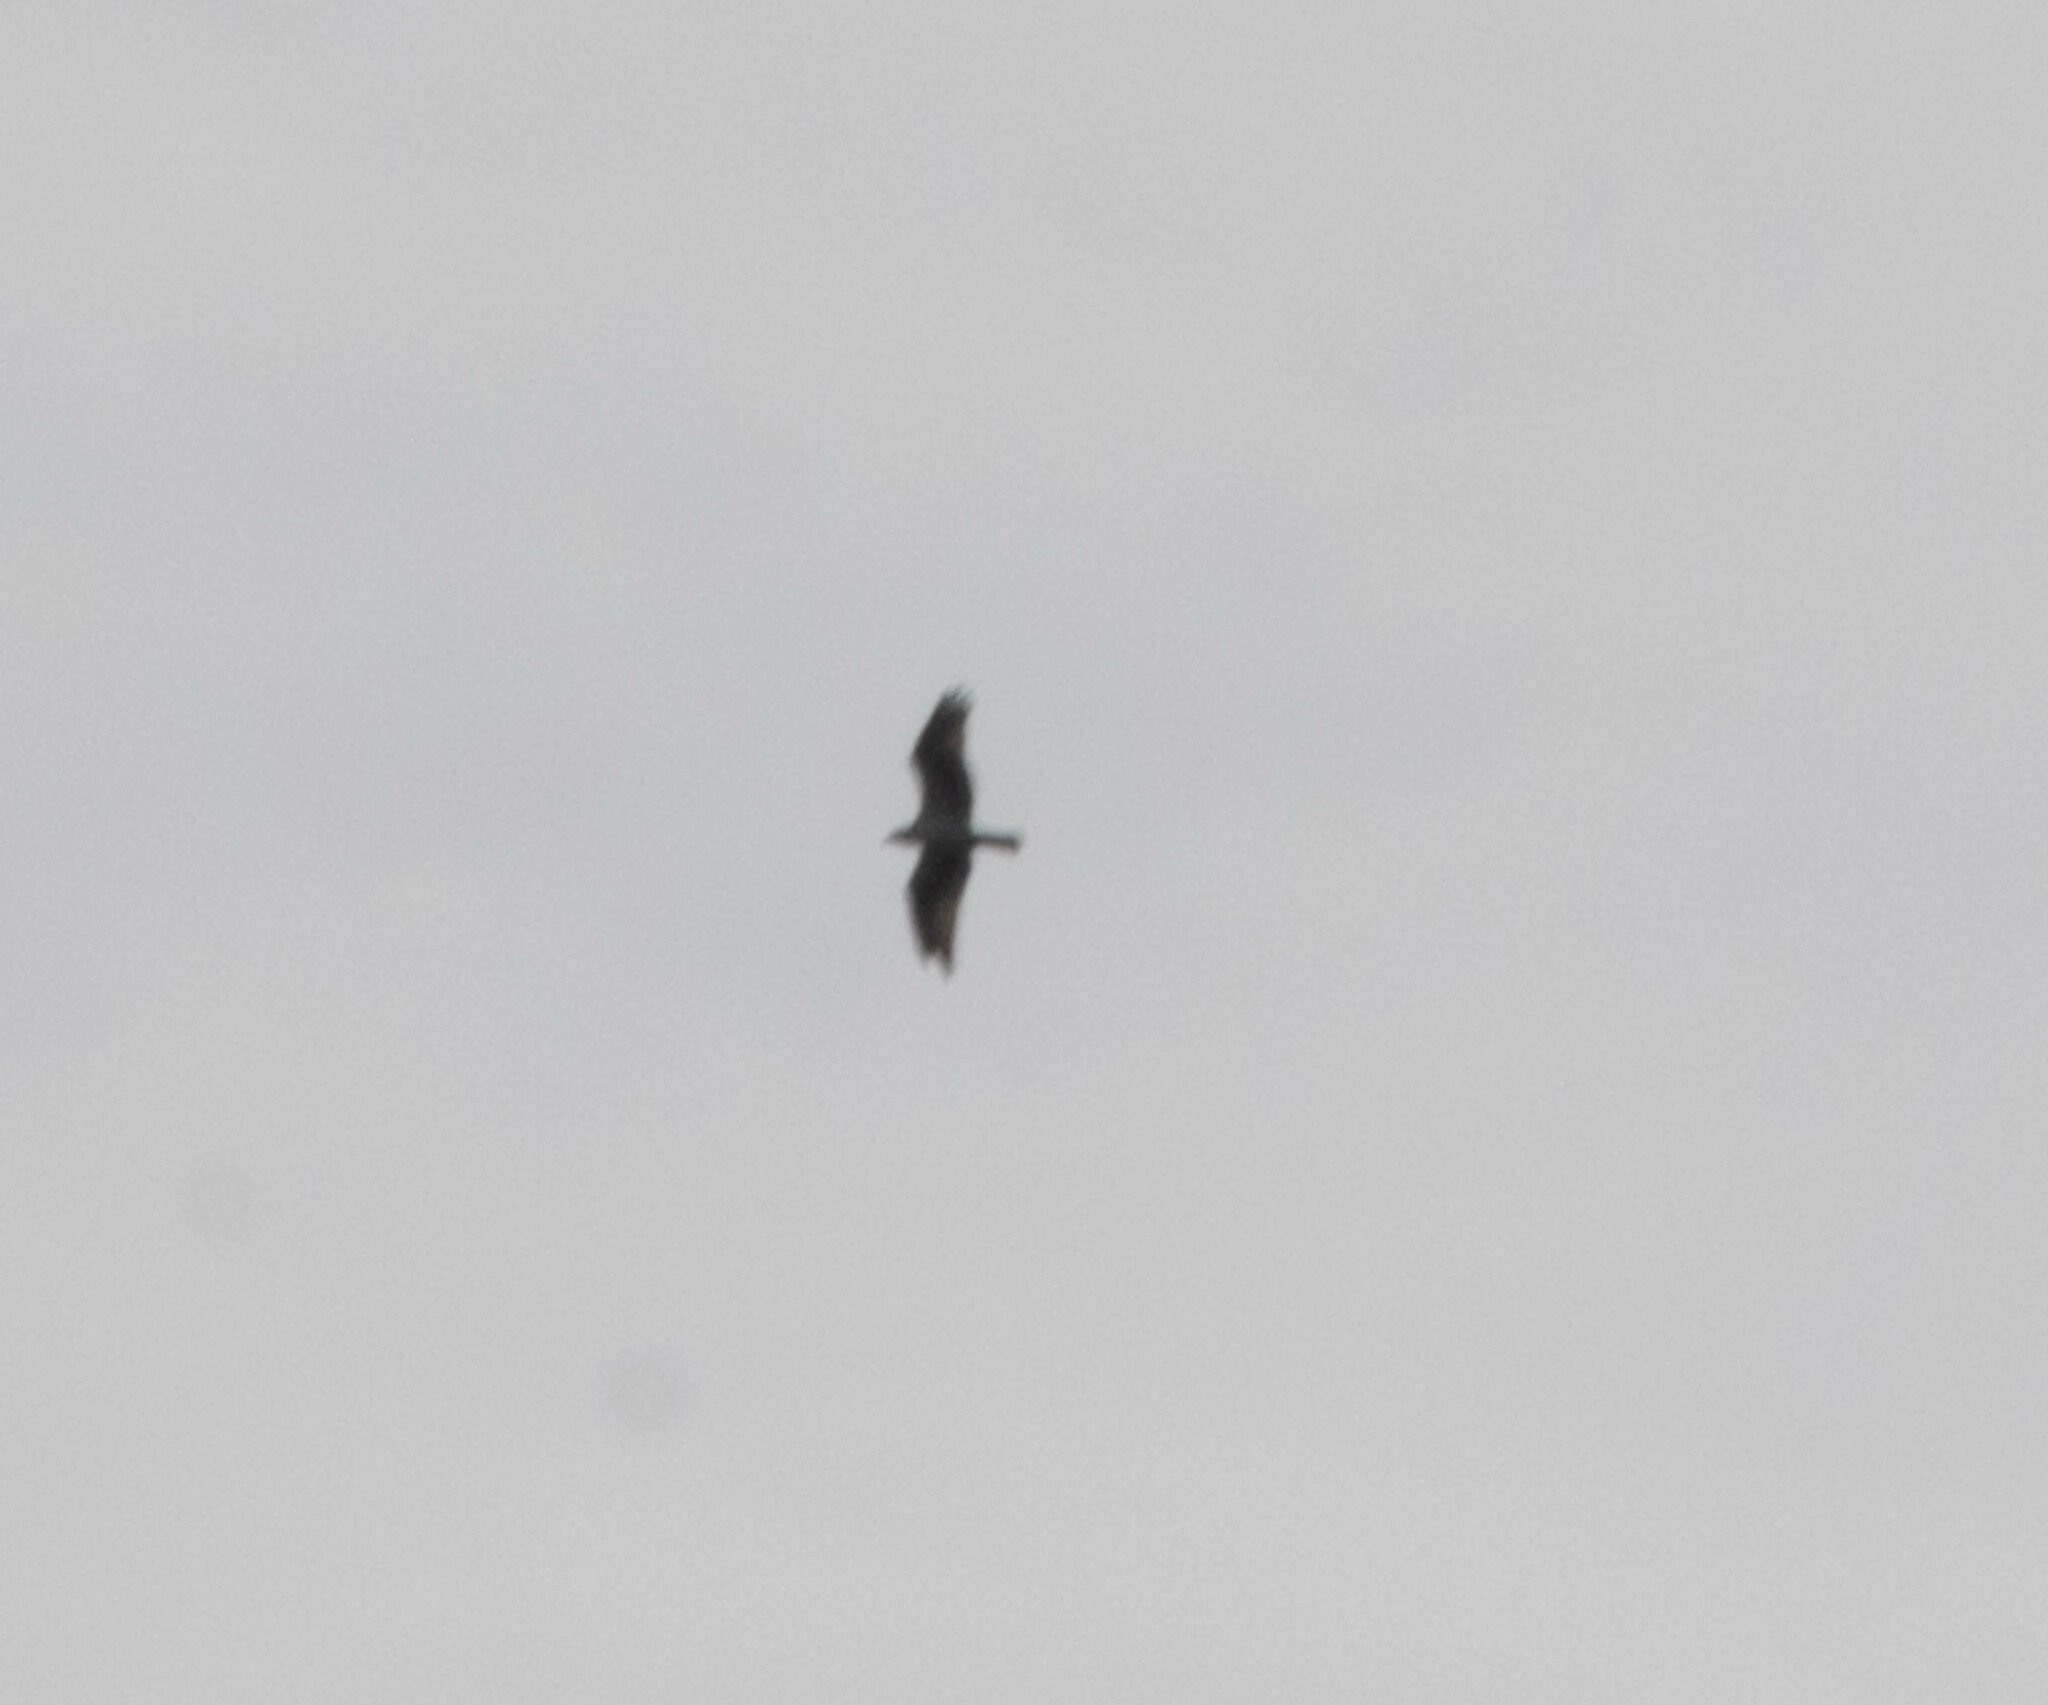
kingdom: Animalia
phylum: Chordata
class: Aves
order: Accipitriformes
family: Pandionidae
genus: Pandion
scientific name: Pandion haliaetus
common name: Osprey
